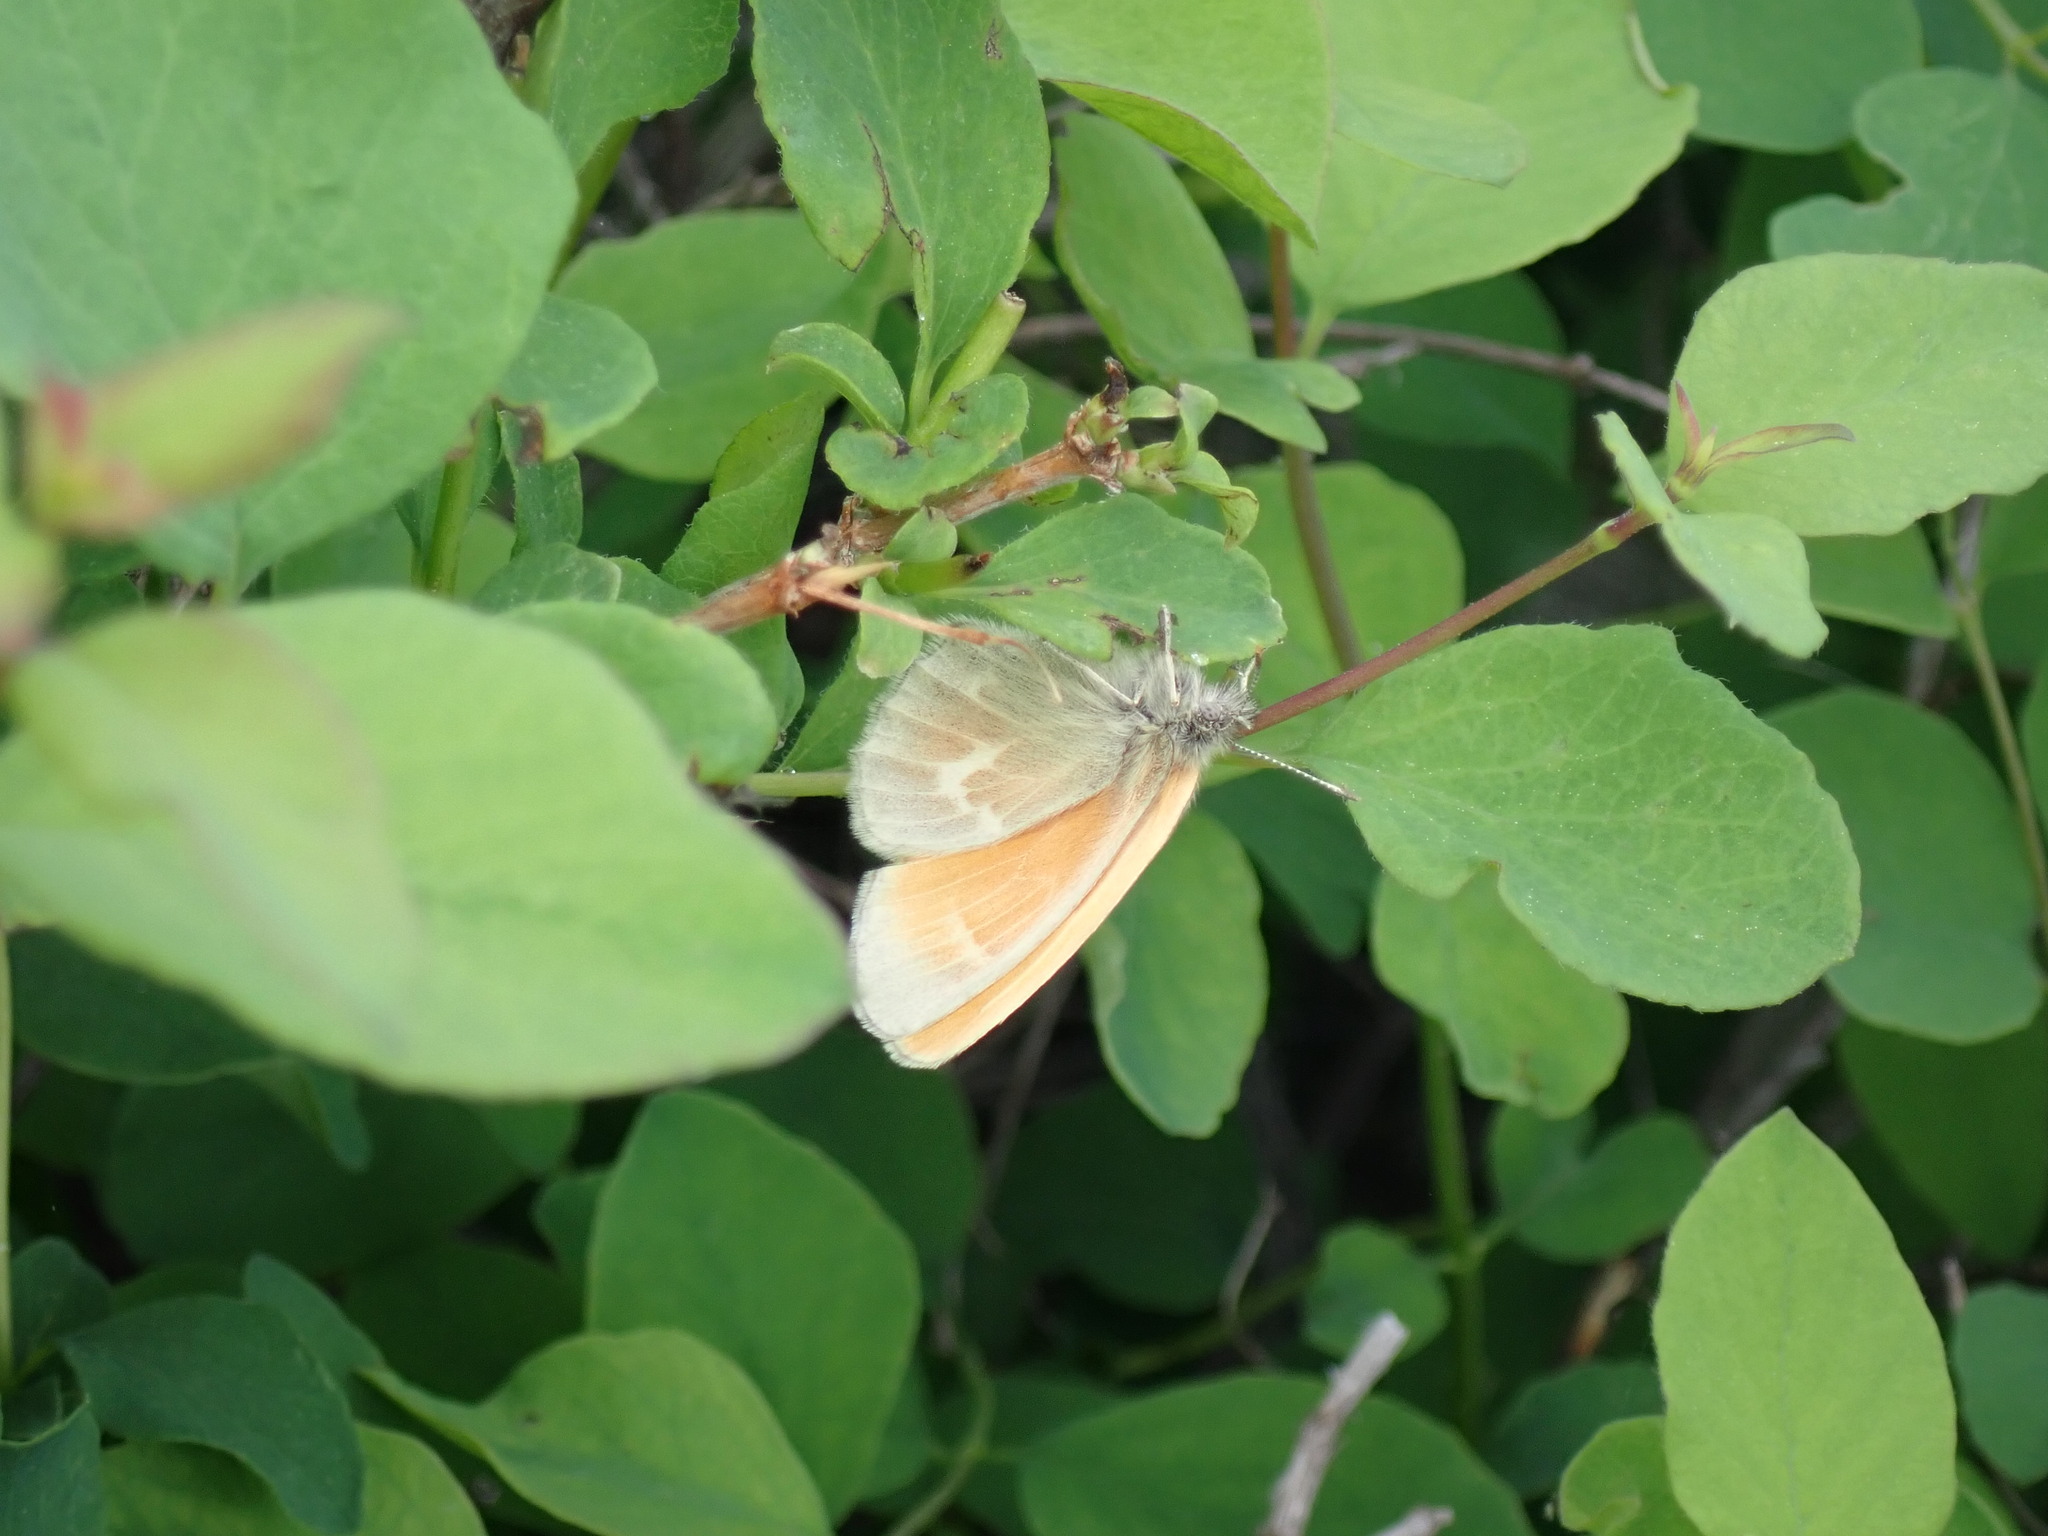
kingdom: Animalia
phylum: Arthropoda
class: Insecta
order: Lepidoptera
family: Nymphalidae
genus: Coenonympha
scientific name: Coenonympha california
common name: Common ringlet
